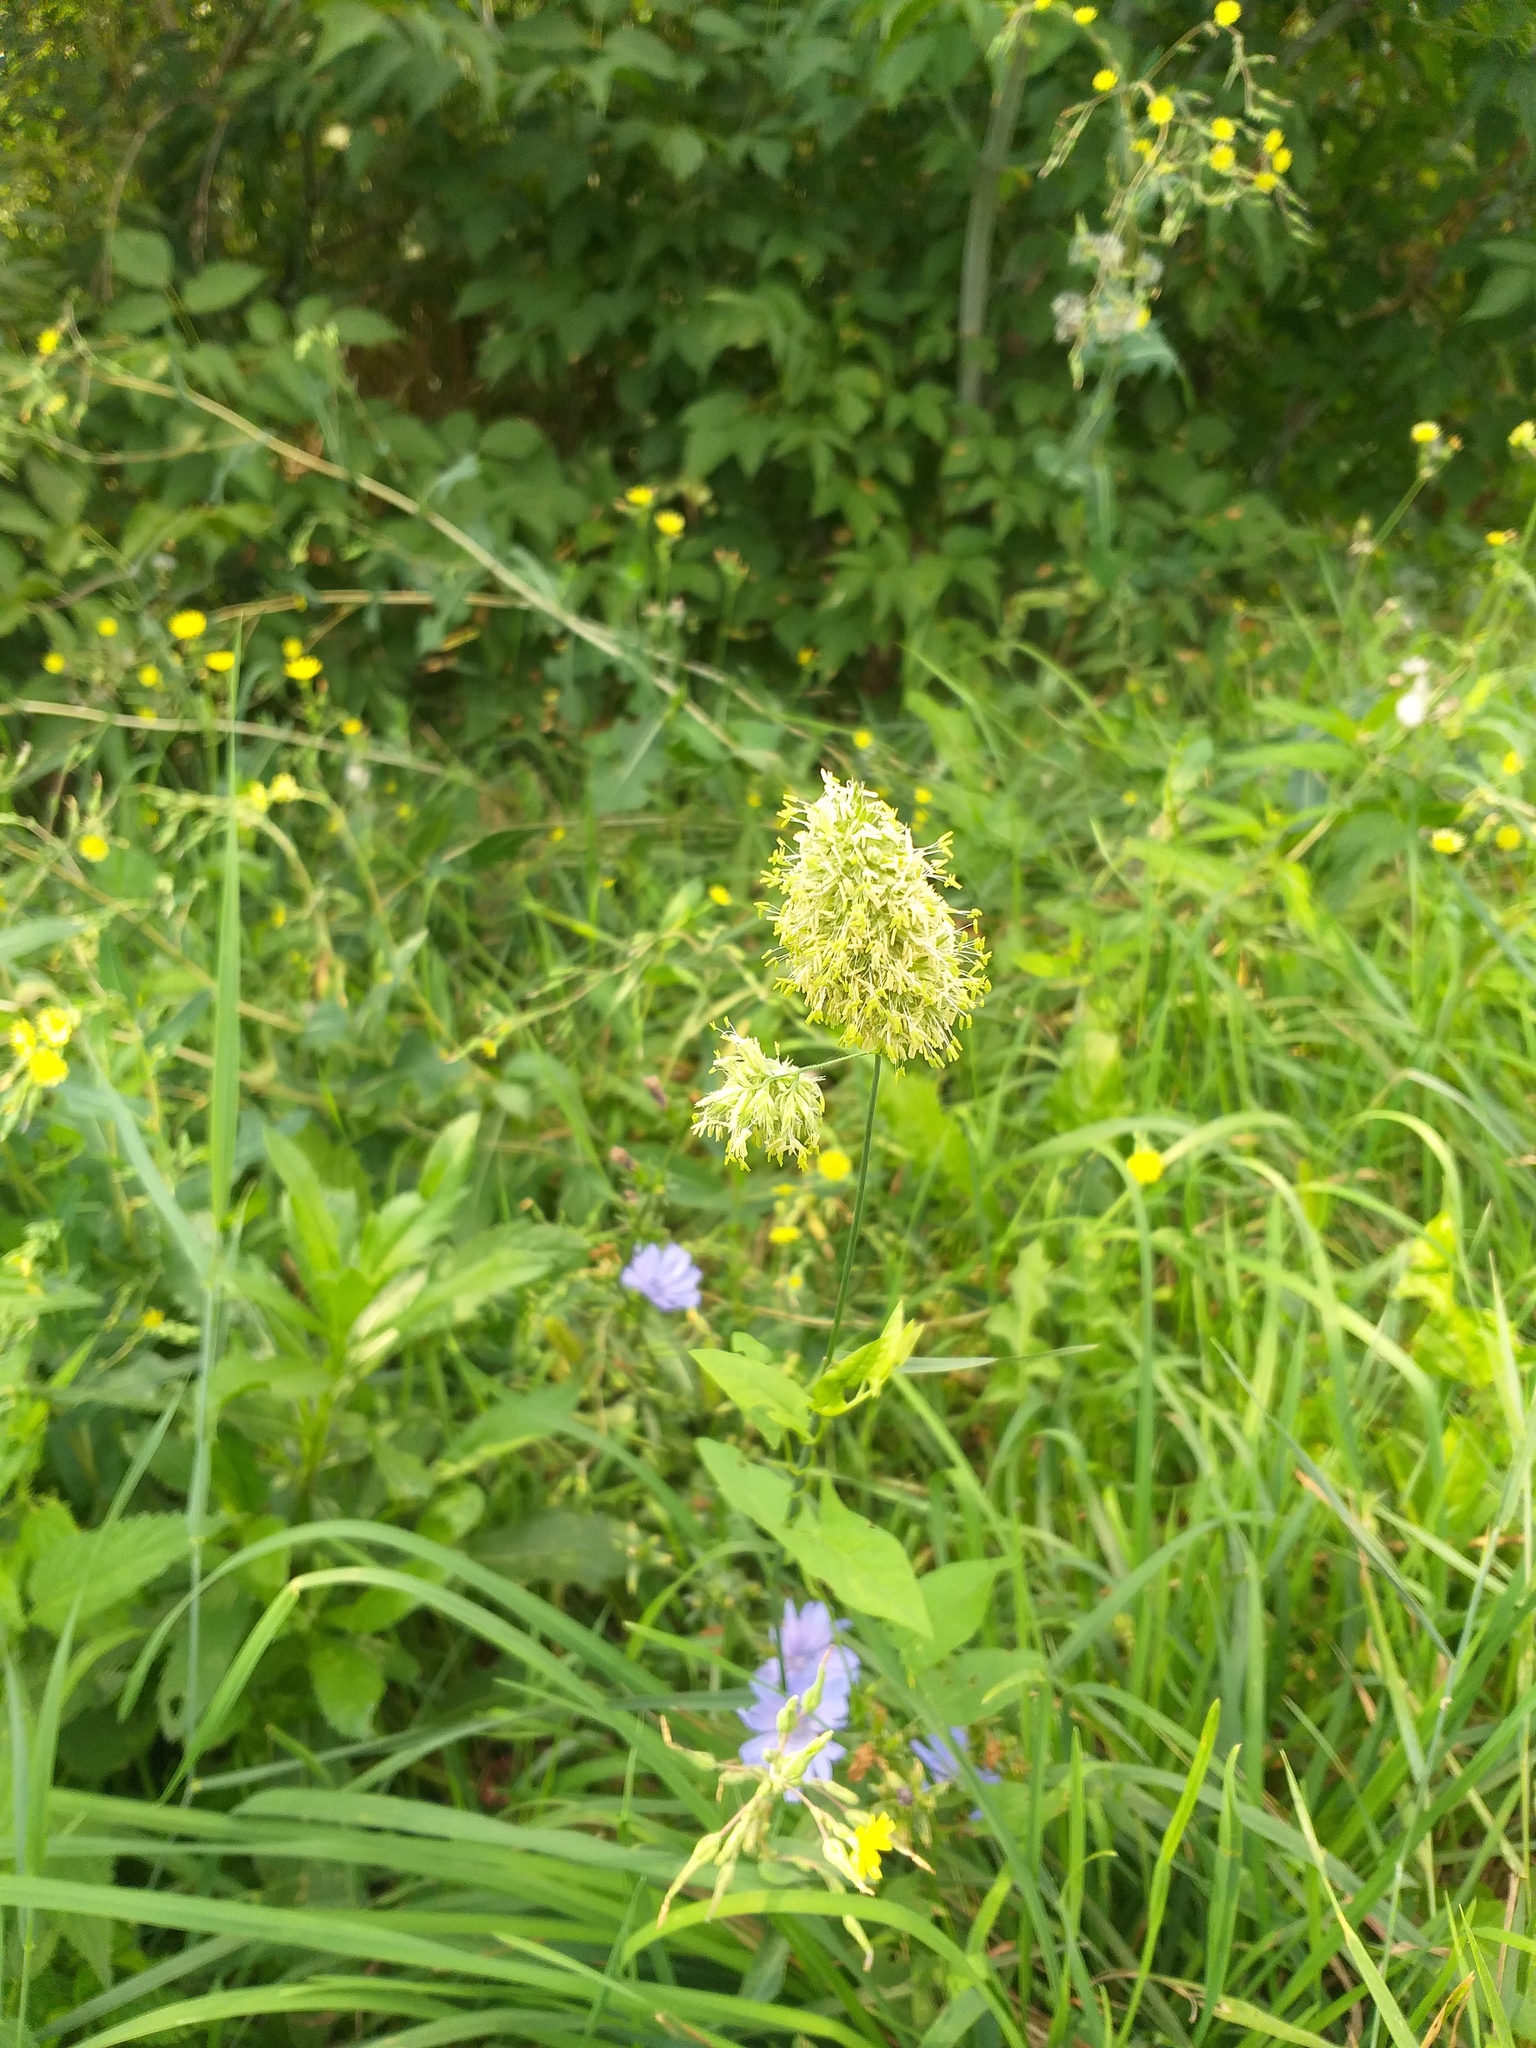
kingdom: Plantae
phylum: Tracheophyta
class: Liliopsida
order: Poales
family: Poaceae
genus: Dactylis
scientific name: Dactylis glomerata
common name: Orchardgrass
